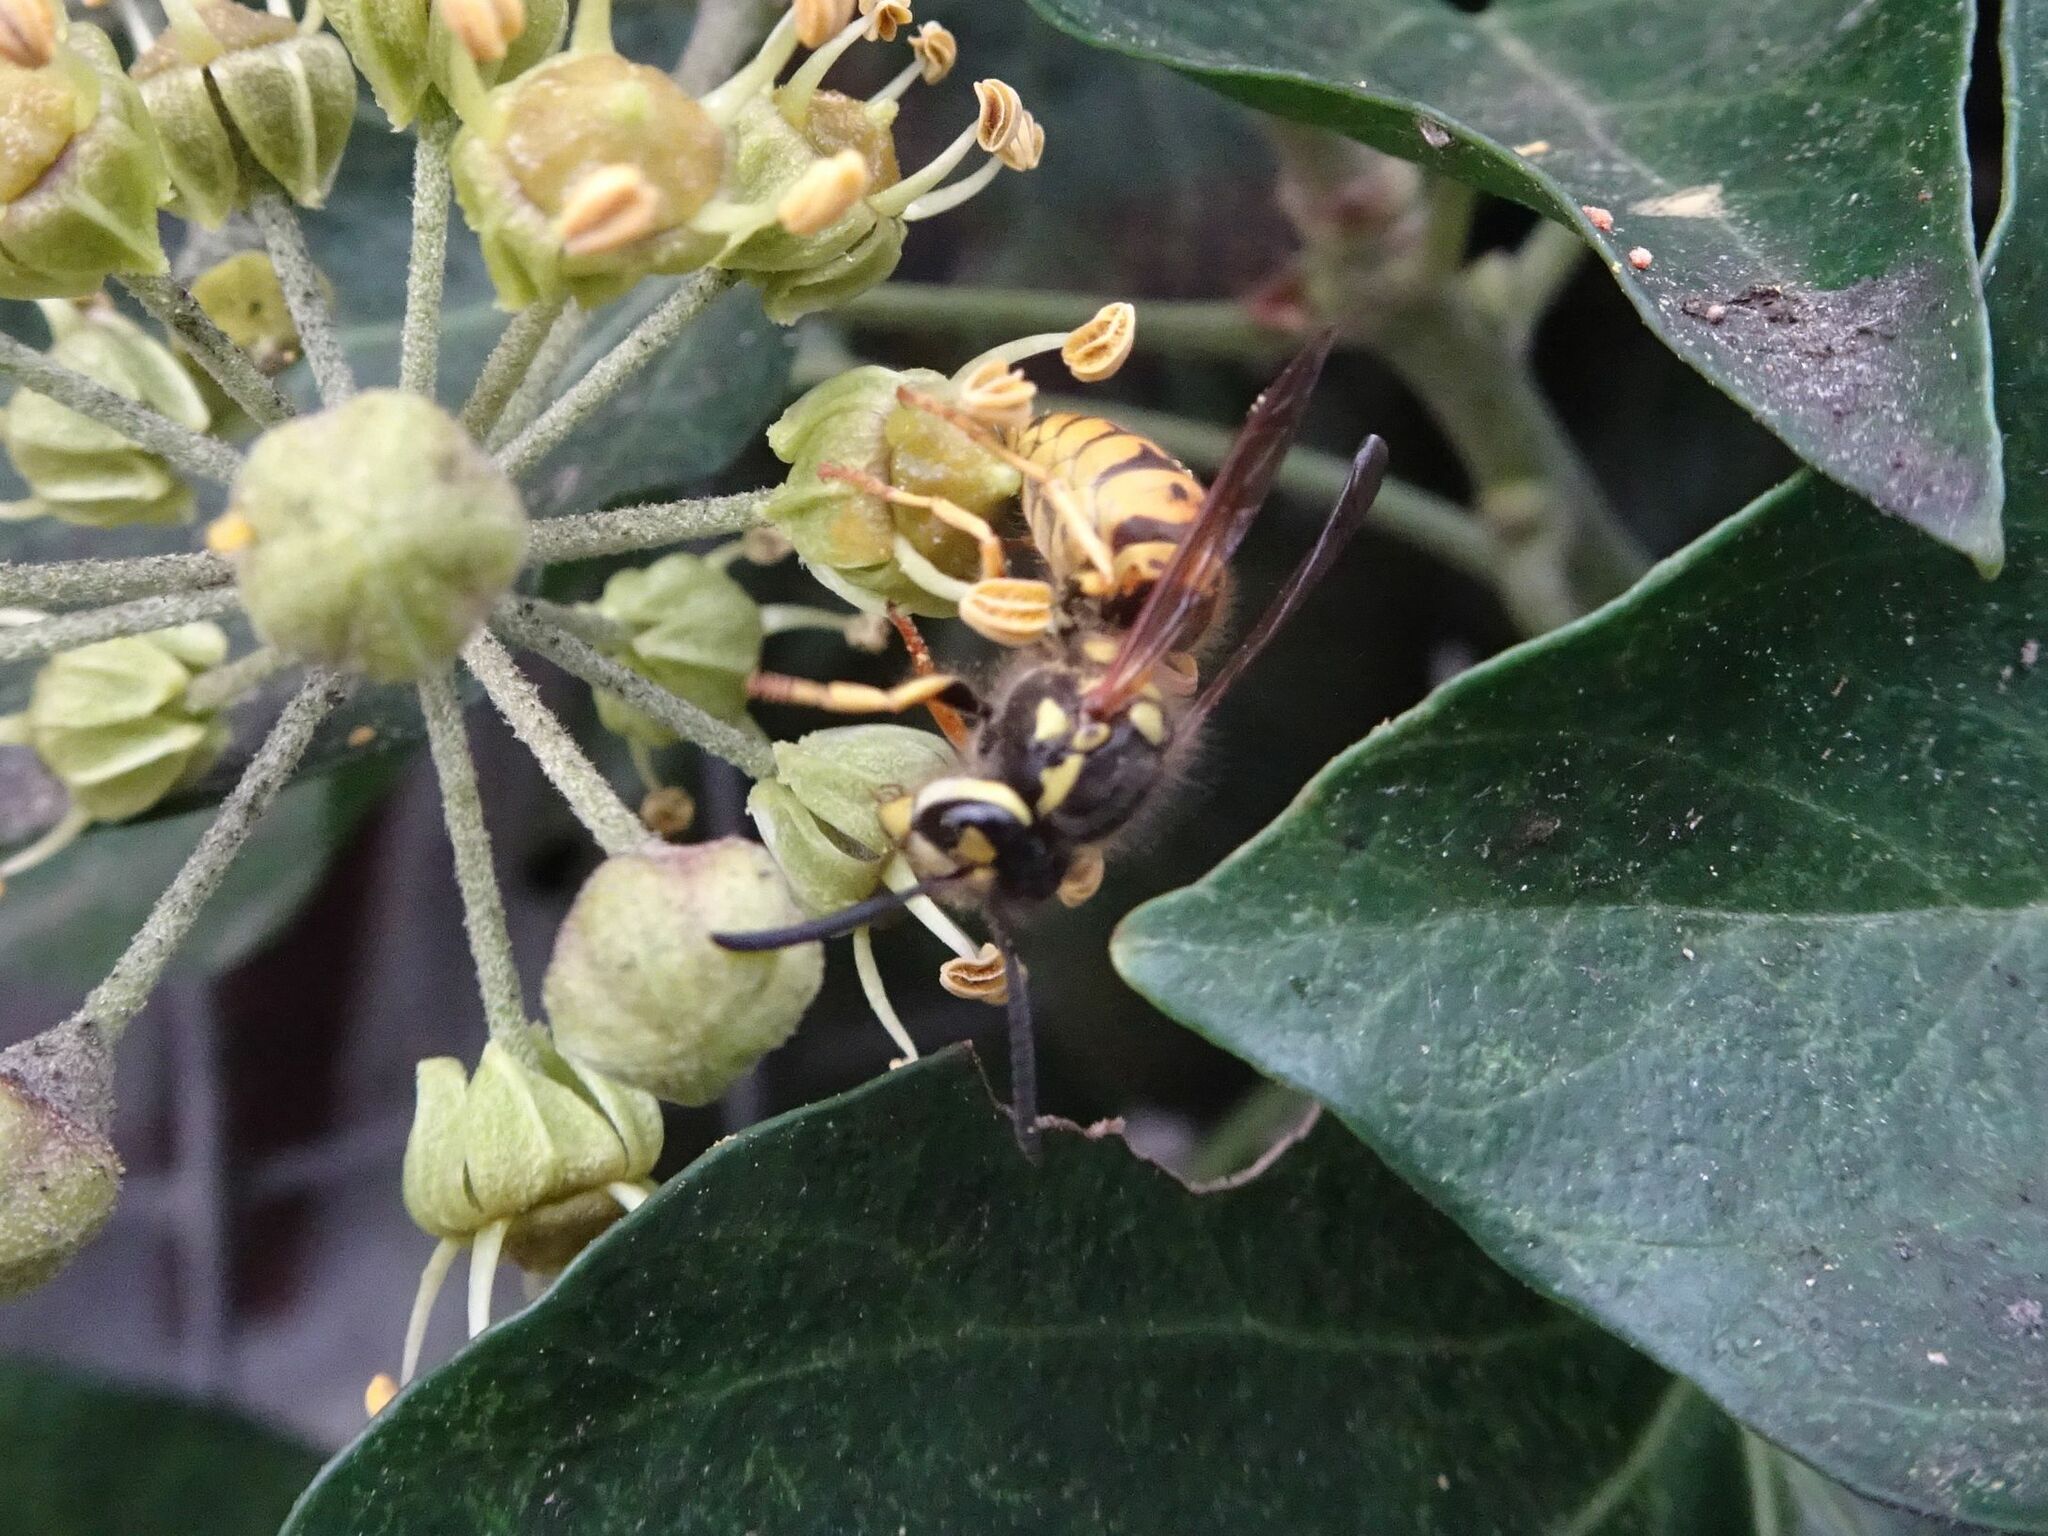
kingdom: Animalia
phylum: Arthropoda
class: Insecta
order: Hymenoptera
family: Vespidae
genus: Vespula
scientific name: Vespula germanica
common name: German wasp
